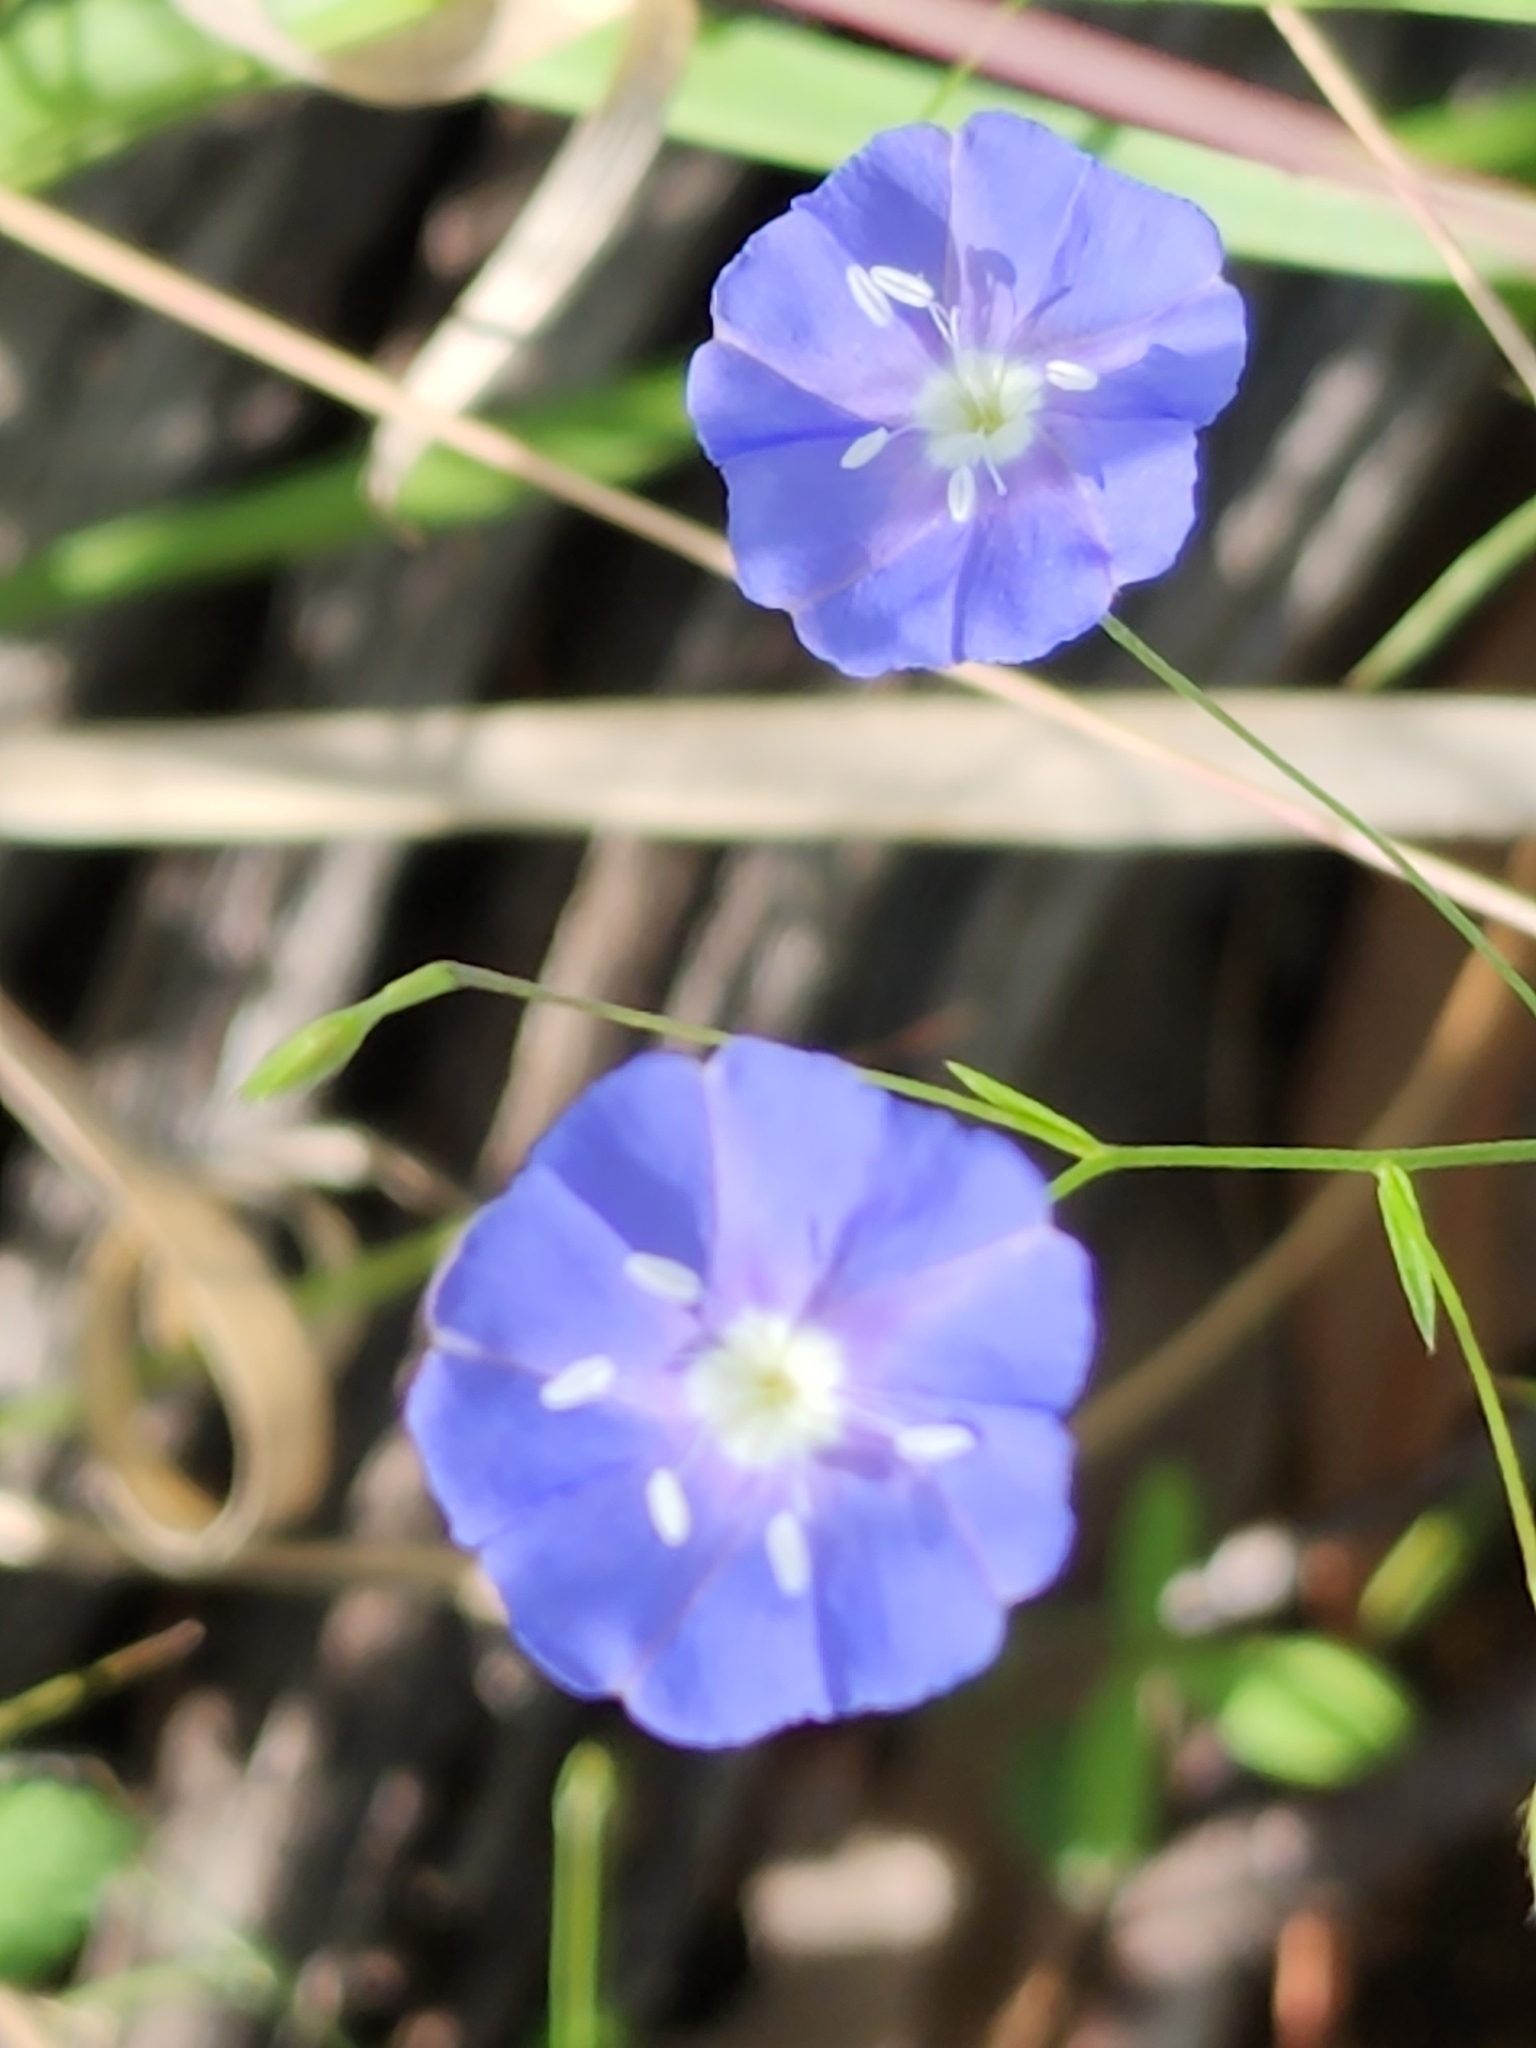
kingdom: Plantae
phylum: Tracheophyta
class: Magnoliopsida
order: Solanales
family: Convolvulaceae
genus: Evolvulus
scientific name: Evolvulus alsinoides
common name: Slender dwarf morning-glory
